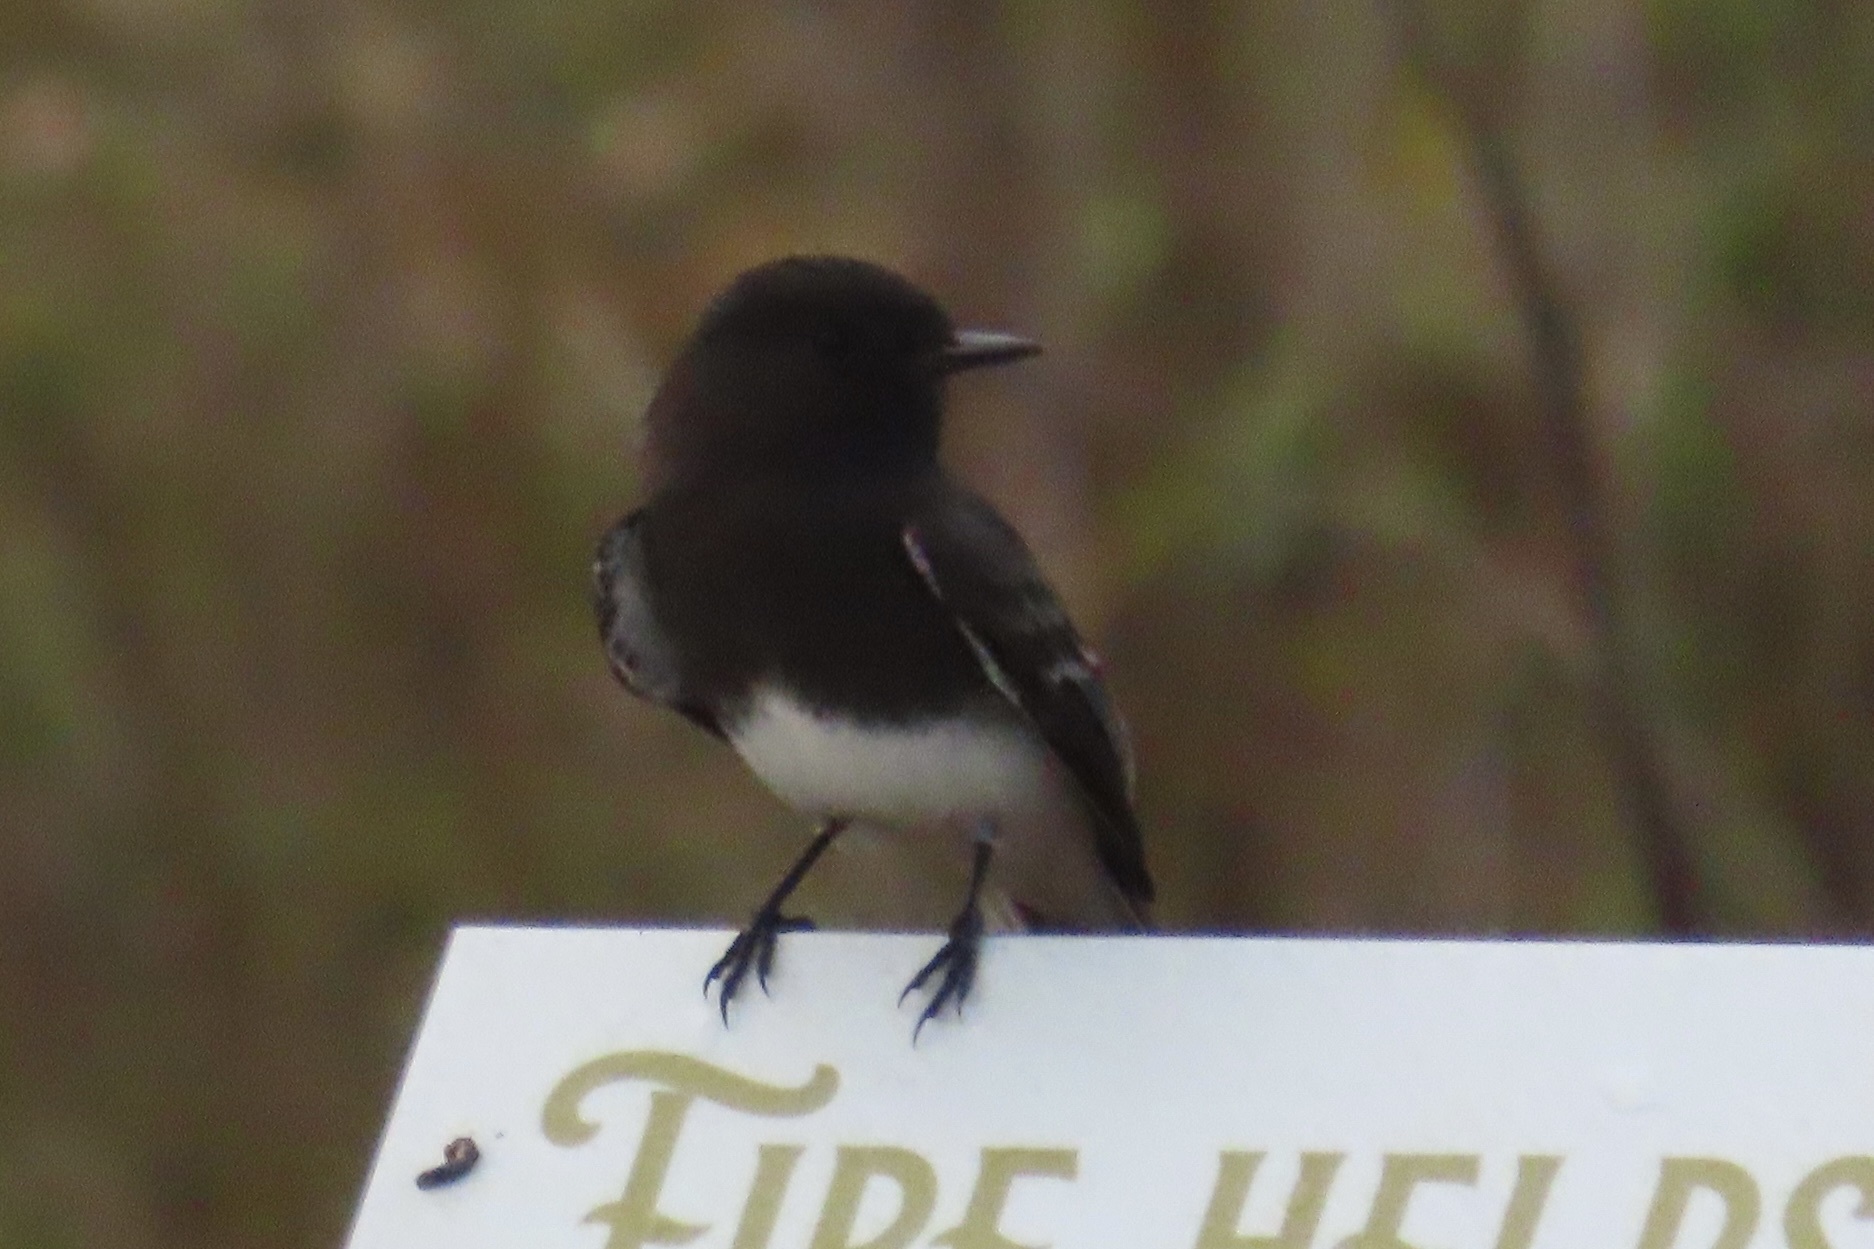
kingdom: Animalia
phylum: Chordata
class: Aves
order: Passeriformes
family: Tyrannidae
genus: Sayornis
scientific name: Sayornis nigricans
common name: Black phoebe
